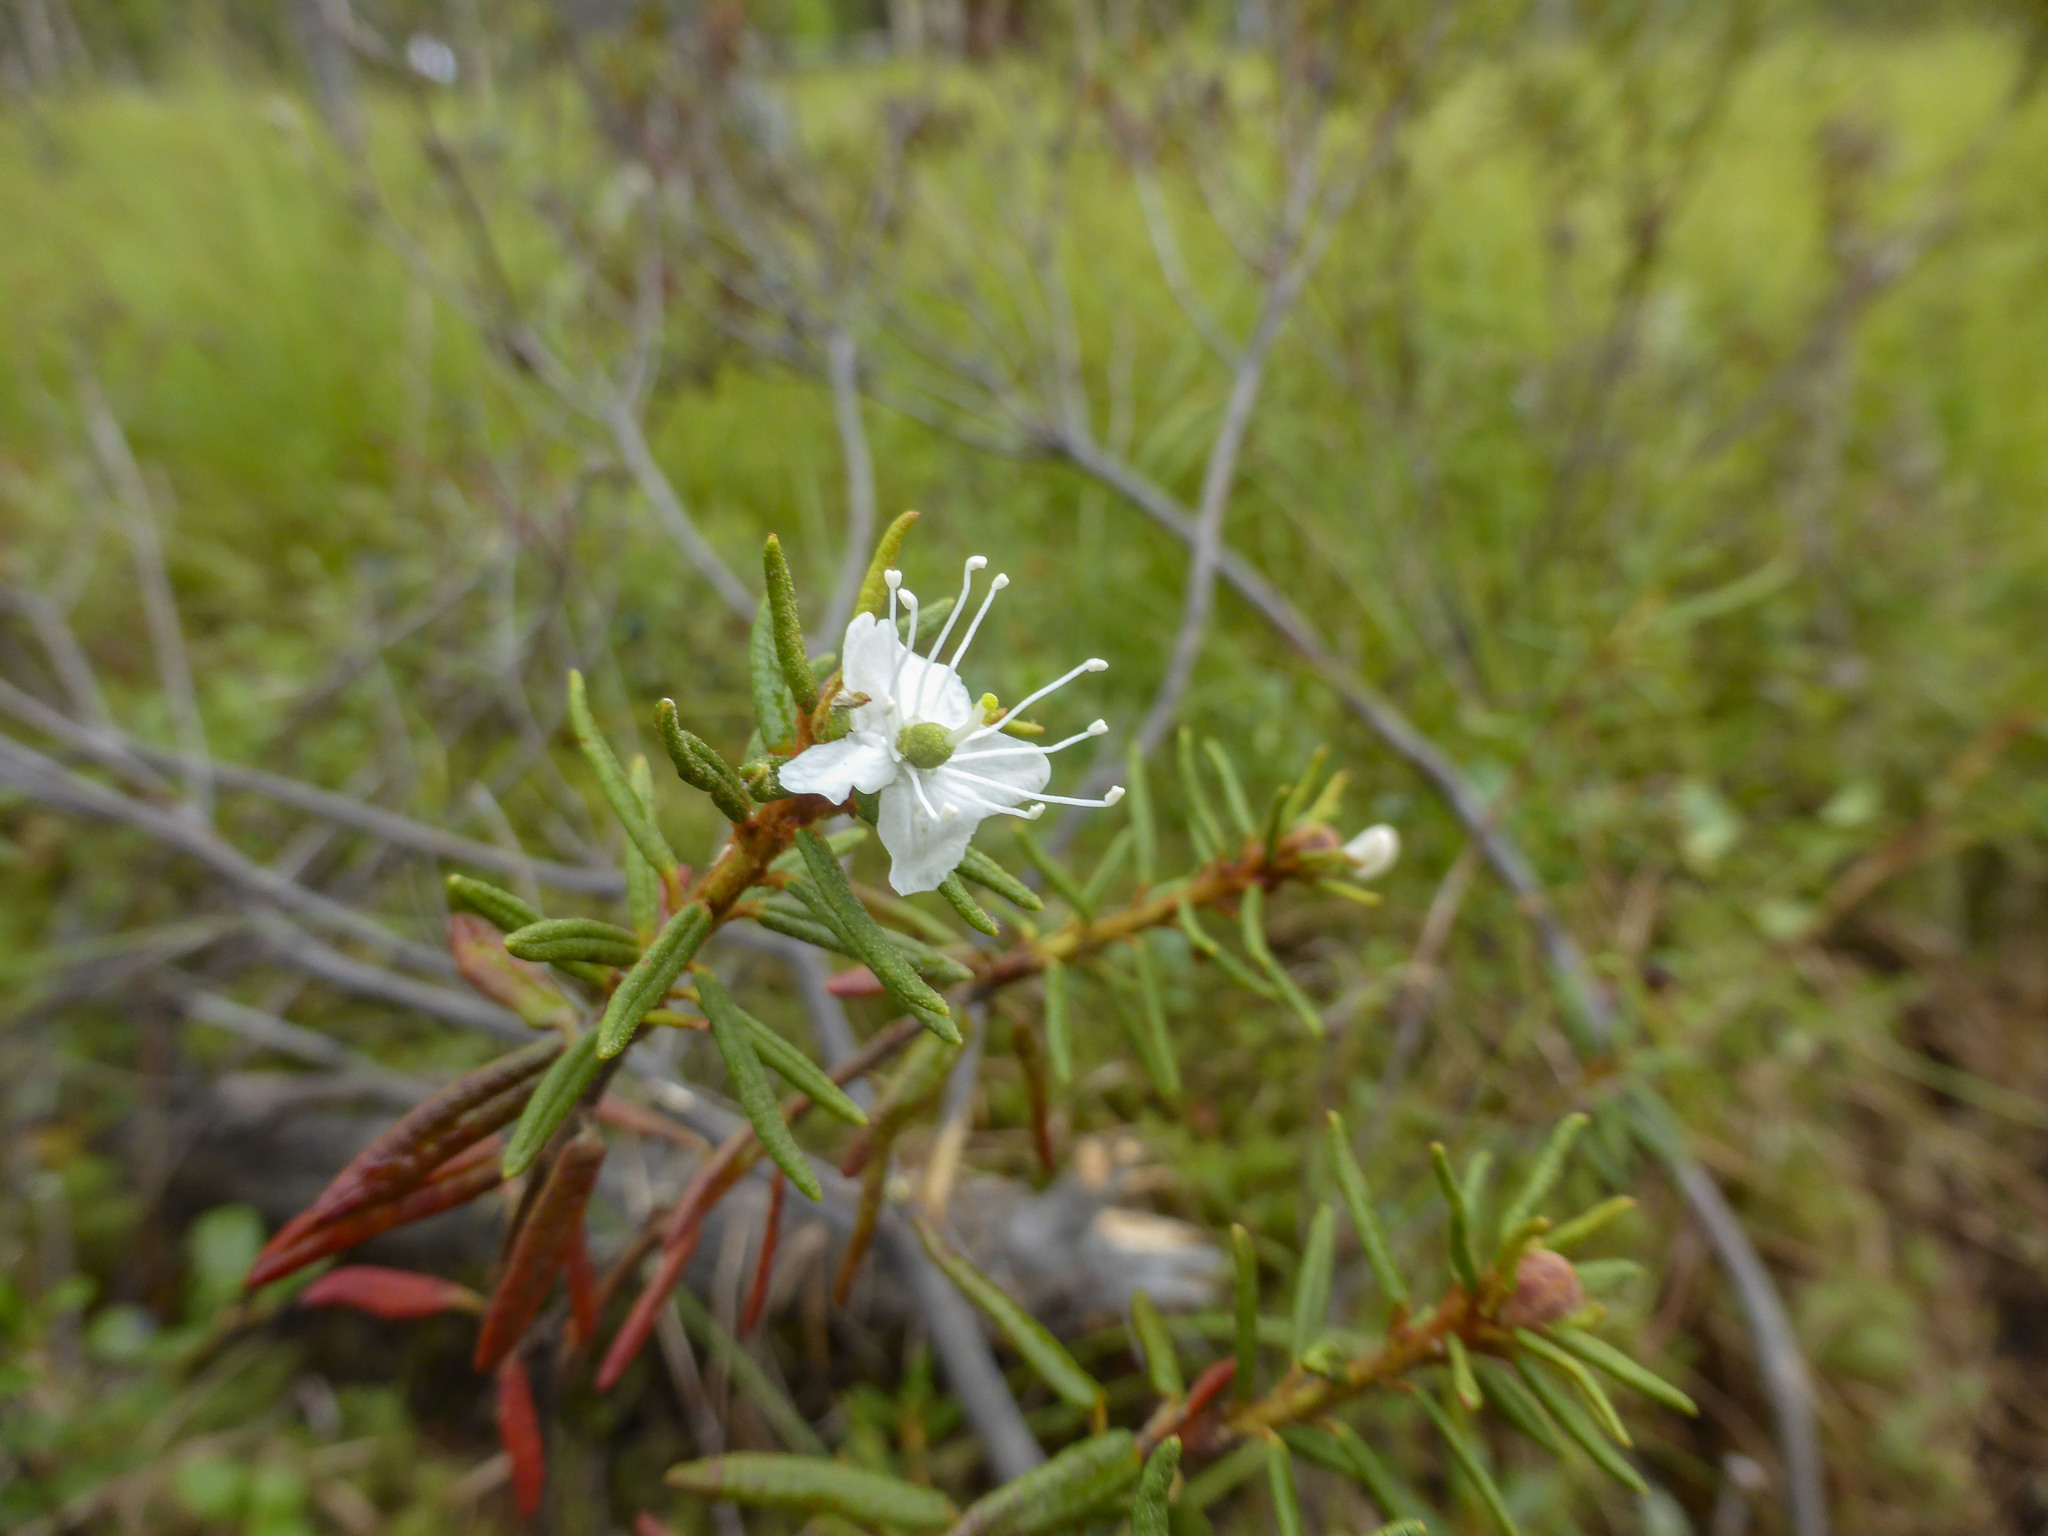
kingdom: Plantae
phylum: Tracheophyta
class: Magnoliopsida
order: Ericales
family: Ericaceae
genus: Rhododendron
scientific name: Rhododendron tomentosum
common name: Marsh labrador tea
